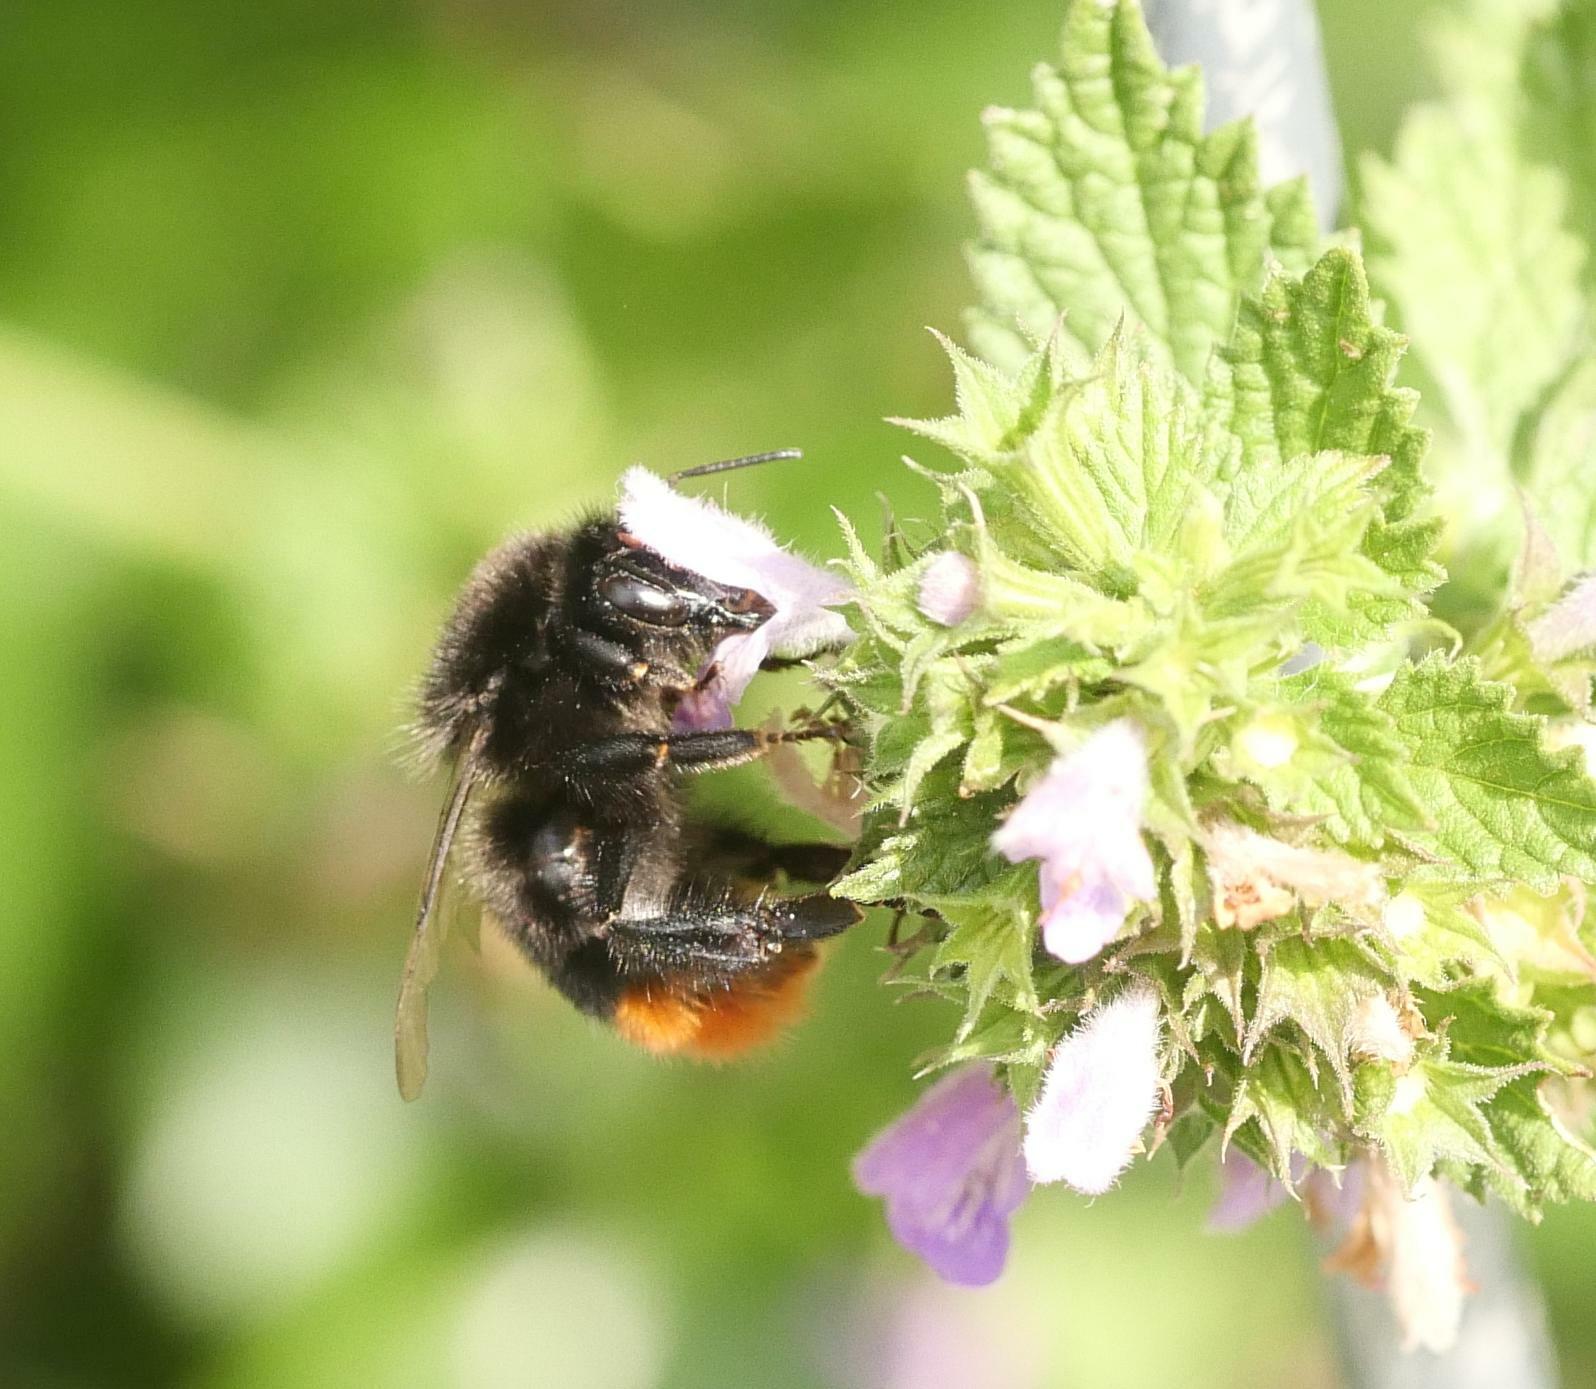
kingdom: Animalia
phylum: Arthropoda
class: Insecta
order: Hymenoptera
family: Apidae
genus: Bombus
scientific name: Bombus lapidarius
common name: Large red-tailed humble-bee
